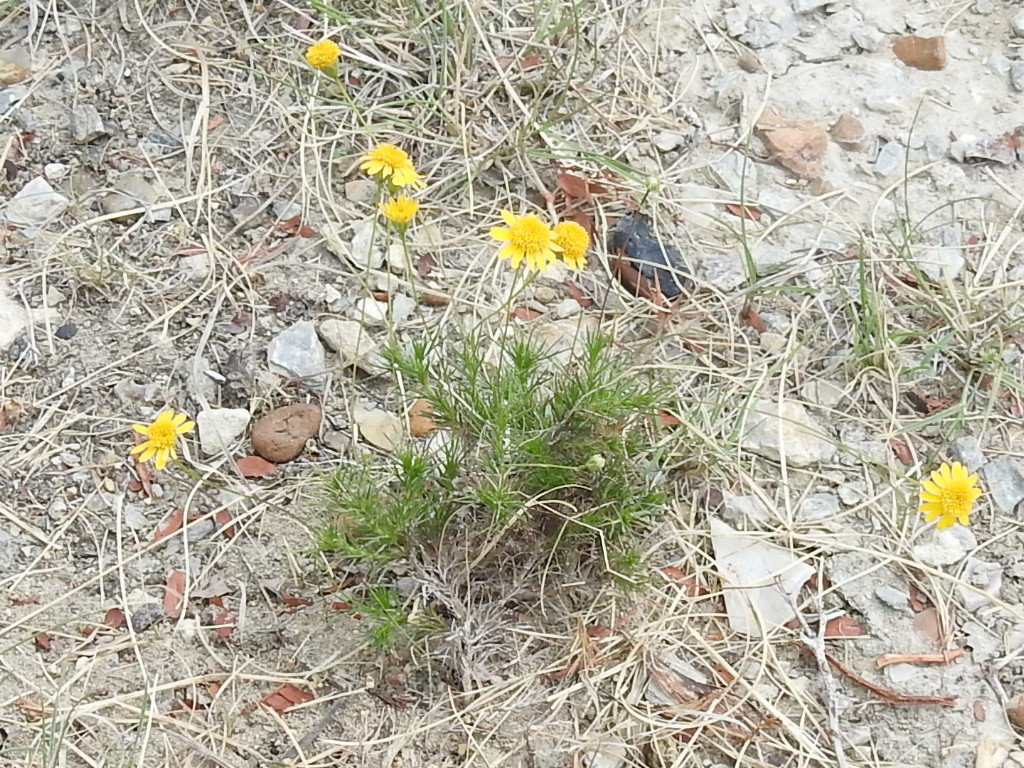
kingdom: Plantae
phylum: Tracheophyta
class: Magnoliopsida
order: Asterales
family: Asteraceae
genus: Thymophylla
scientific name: Thymophylla pentachaeta
